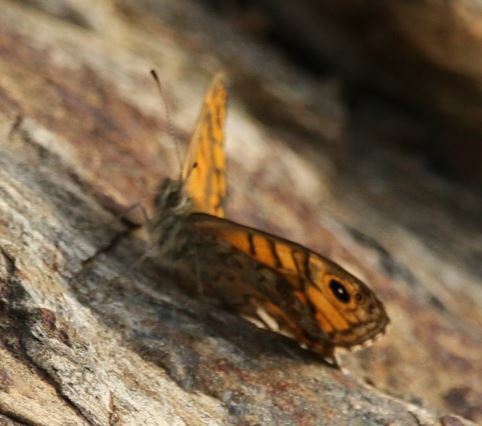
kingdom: Animalia
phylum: Arthropoda
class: Insecta
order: Lepidoptera
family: Nymphalidae
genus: Pararge
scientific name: Pararge Lasiommata megera
